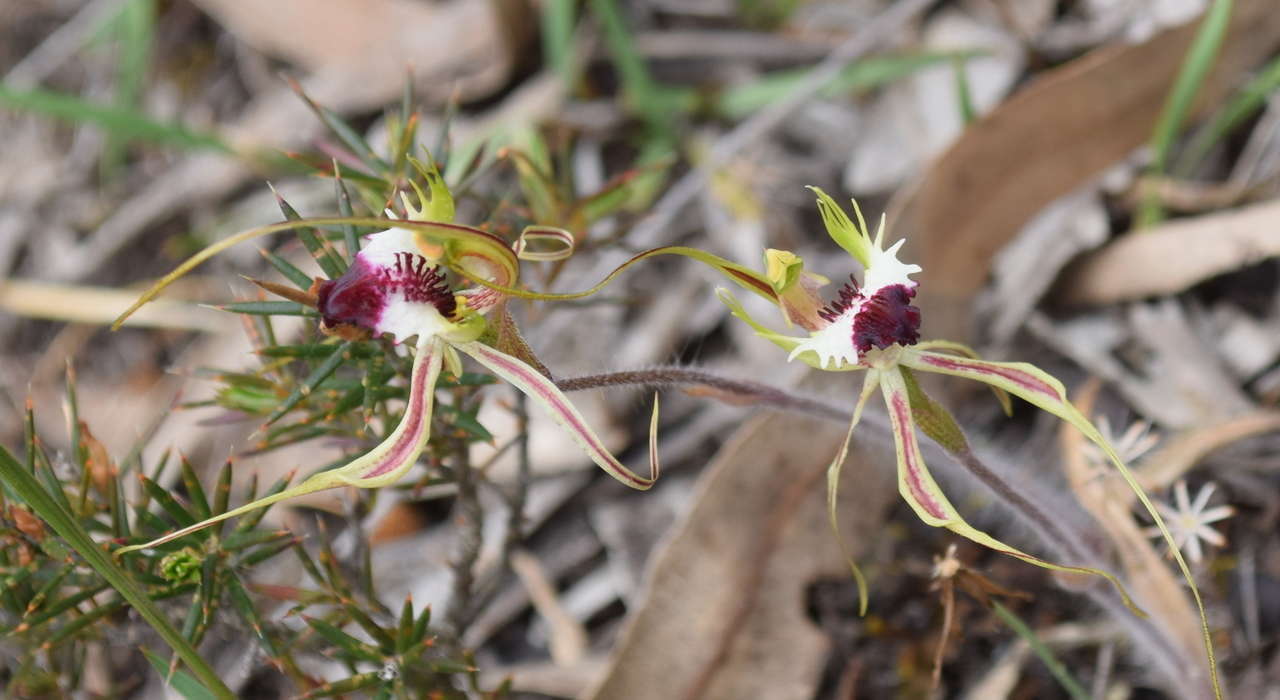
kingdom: Plantae
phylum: Tracheophyta
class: Liliopsida
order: Asparagales
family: Orchidaceae
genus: Caladenia
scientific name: Caladenia parva
